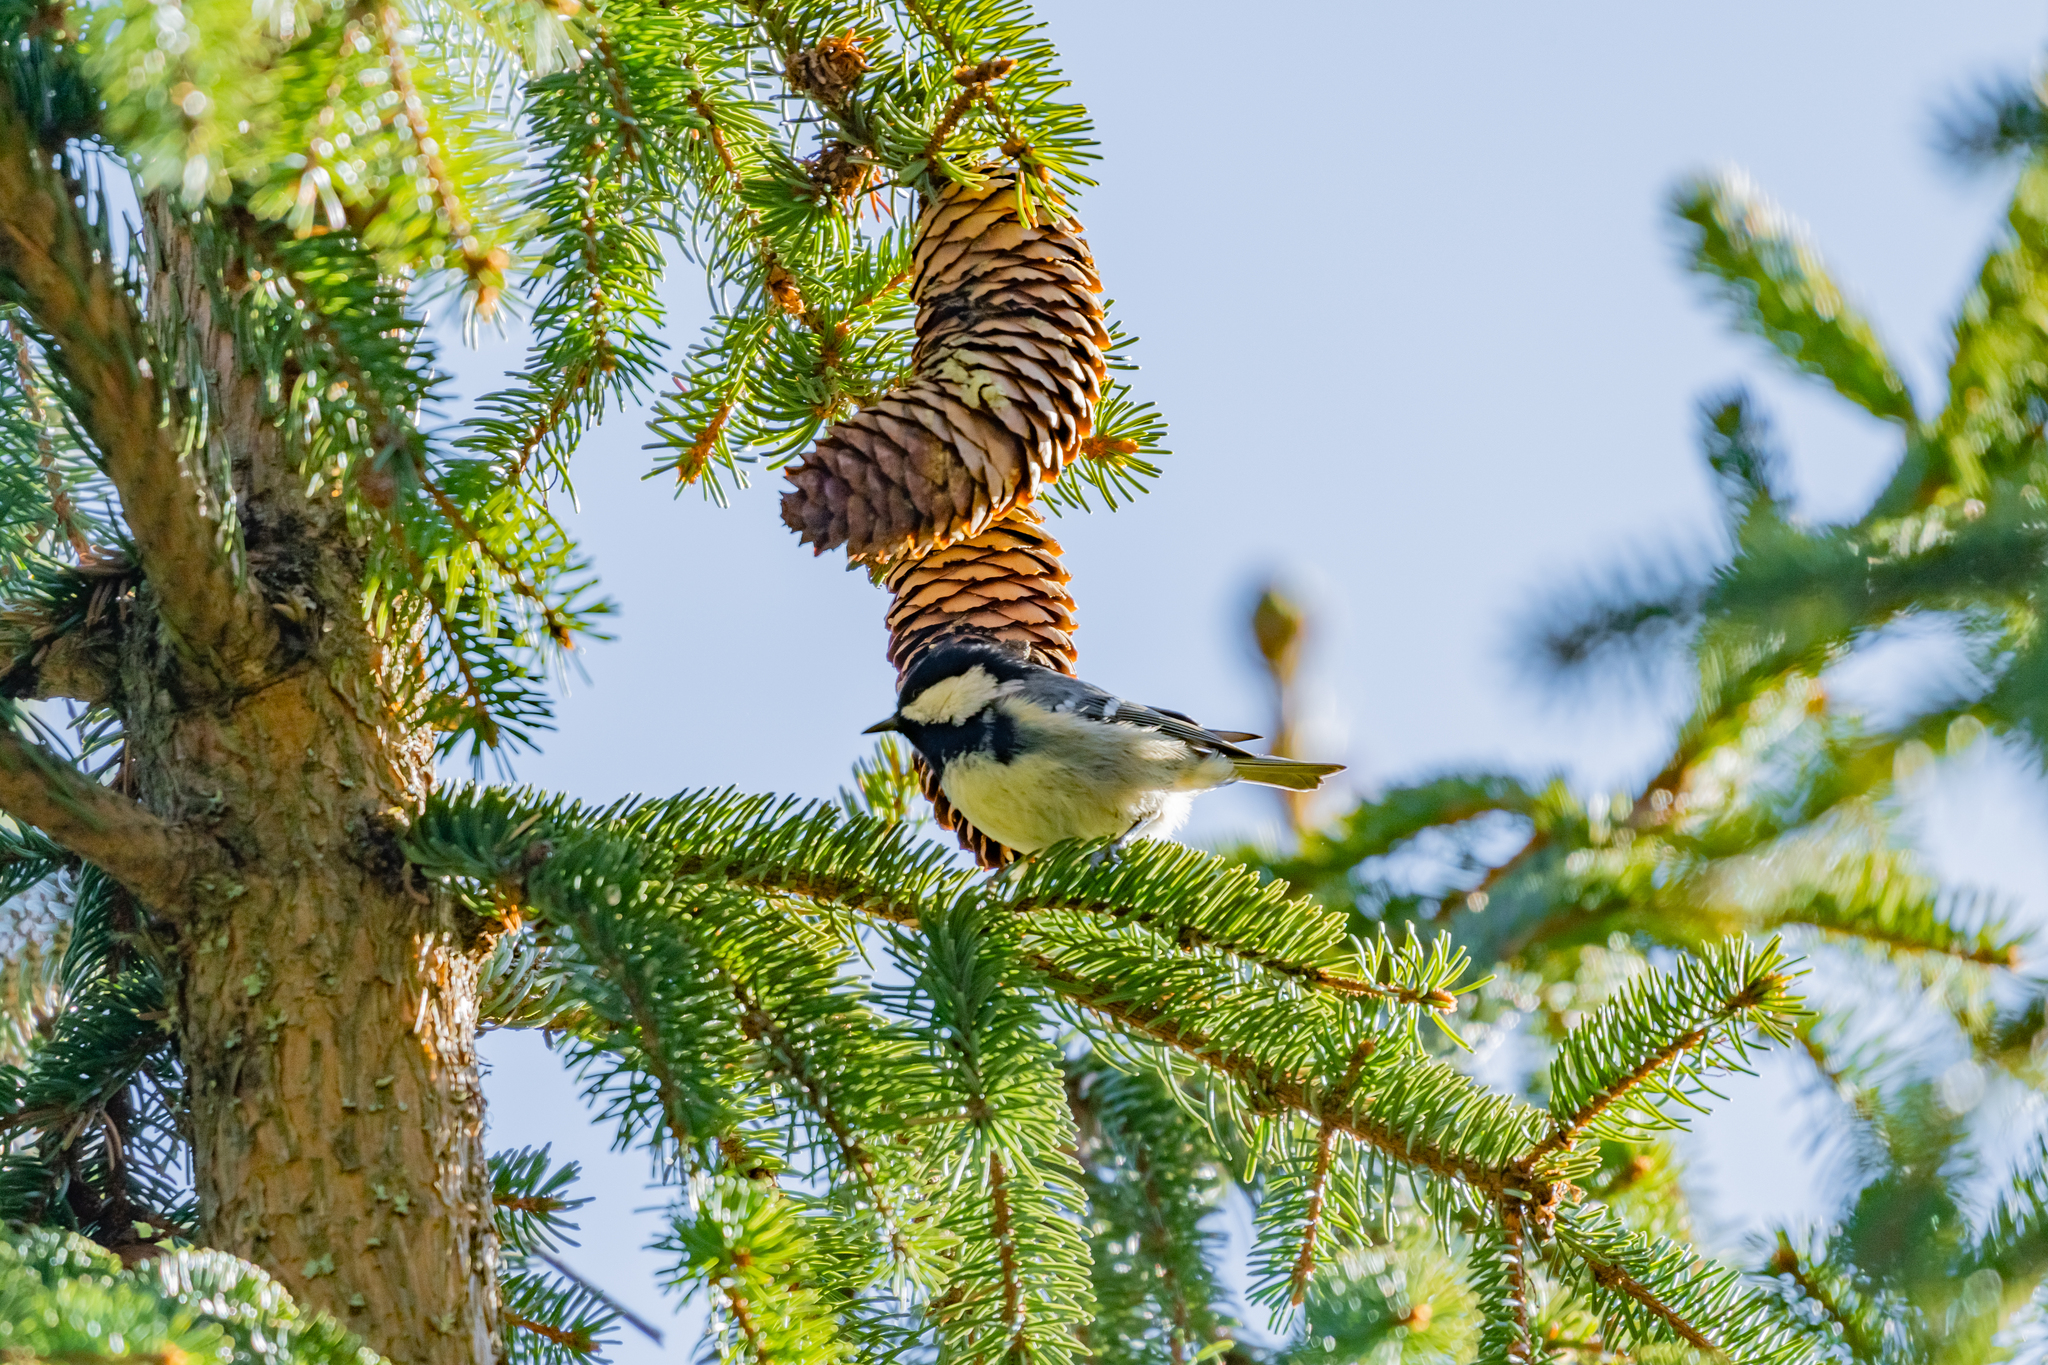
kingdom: Animalia
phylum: Chordata
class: Aves
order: Passeriformes
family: Paridae
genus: Periparus
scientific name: Periparus ater
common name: Coal tit
